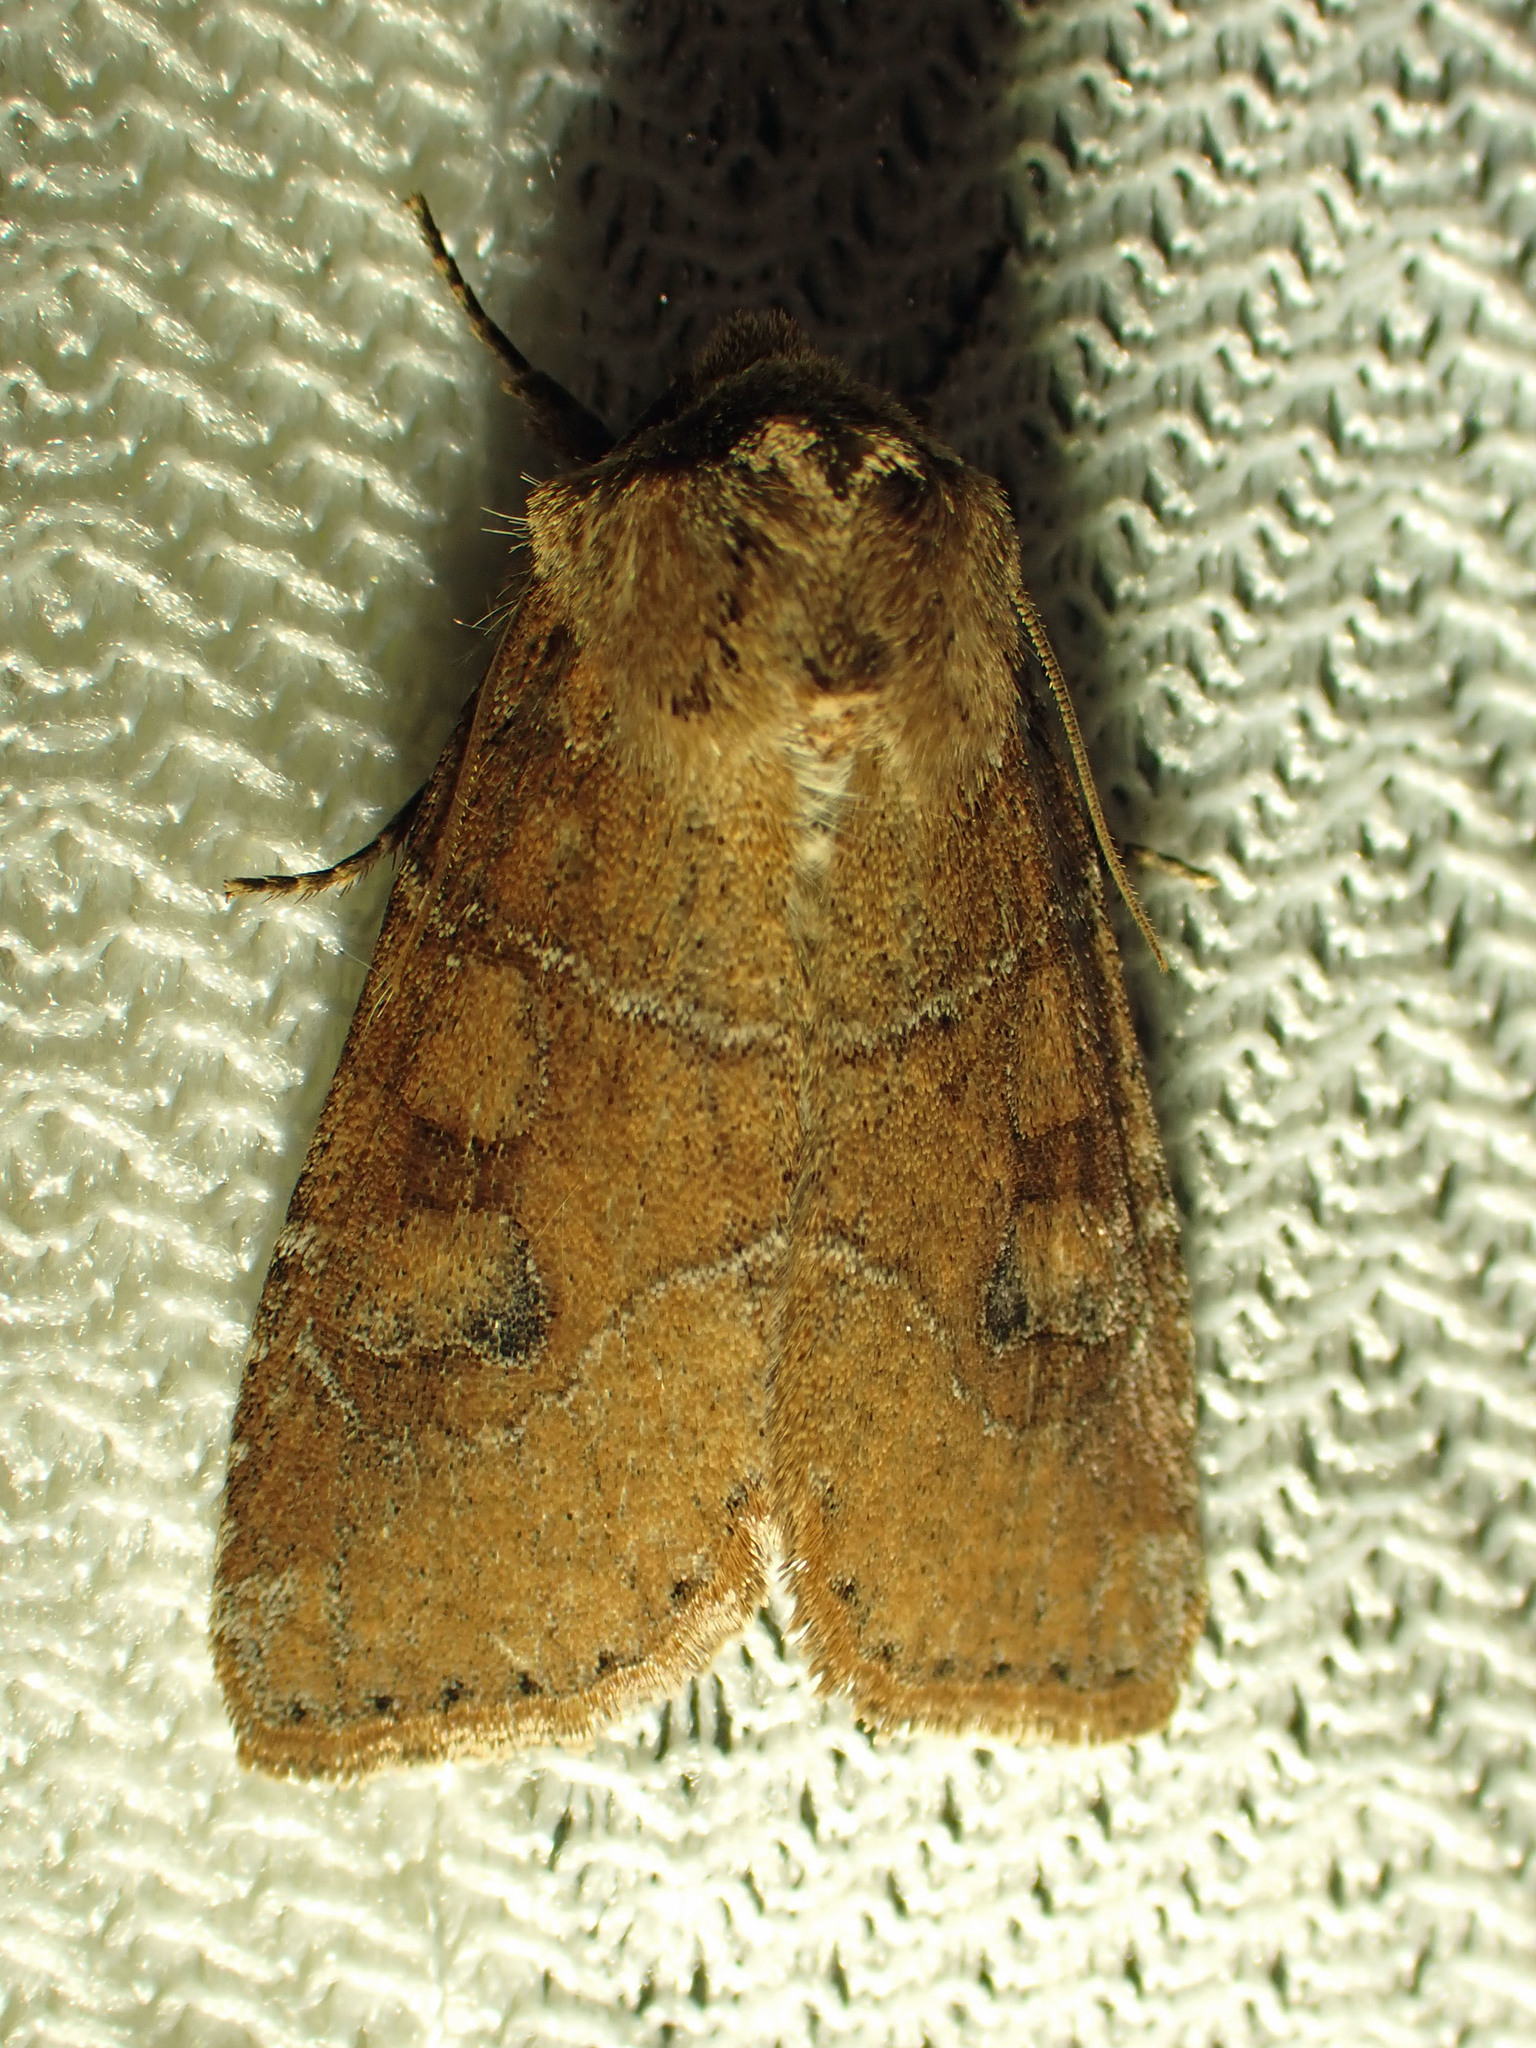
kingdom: Animalia
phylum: Arthropoda
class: Insecta
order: Lepidoptera
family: Noctuidae
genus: Crocigrapha
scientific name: Crocigrapha normani
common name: Norman's quaker
